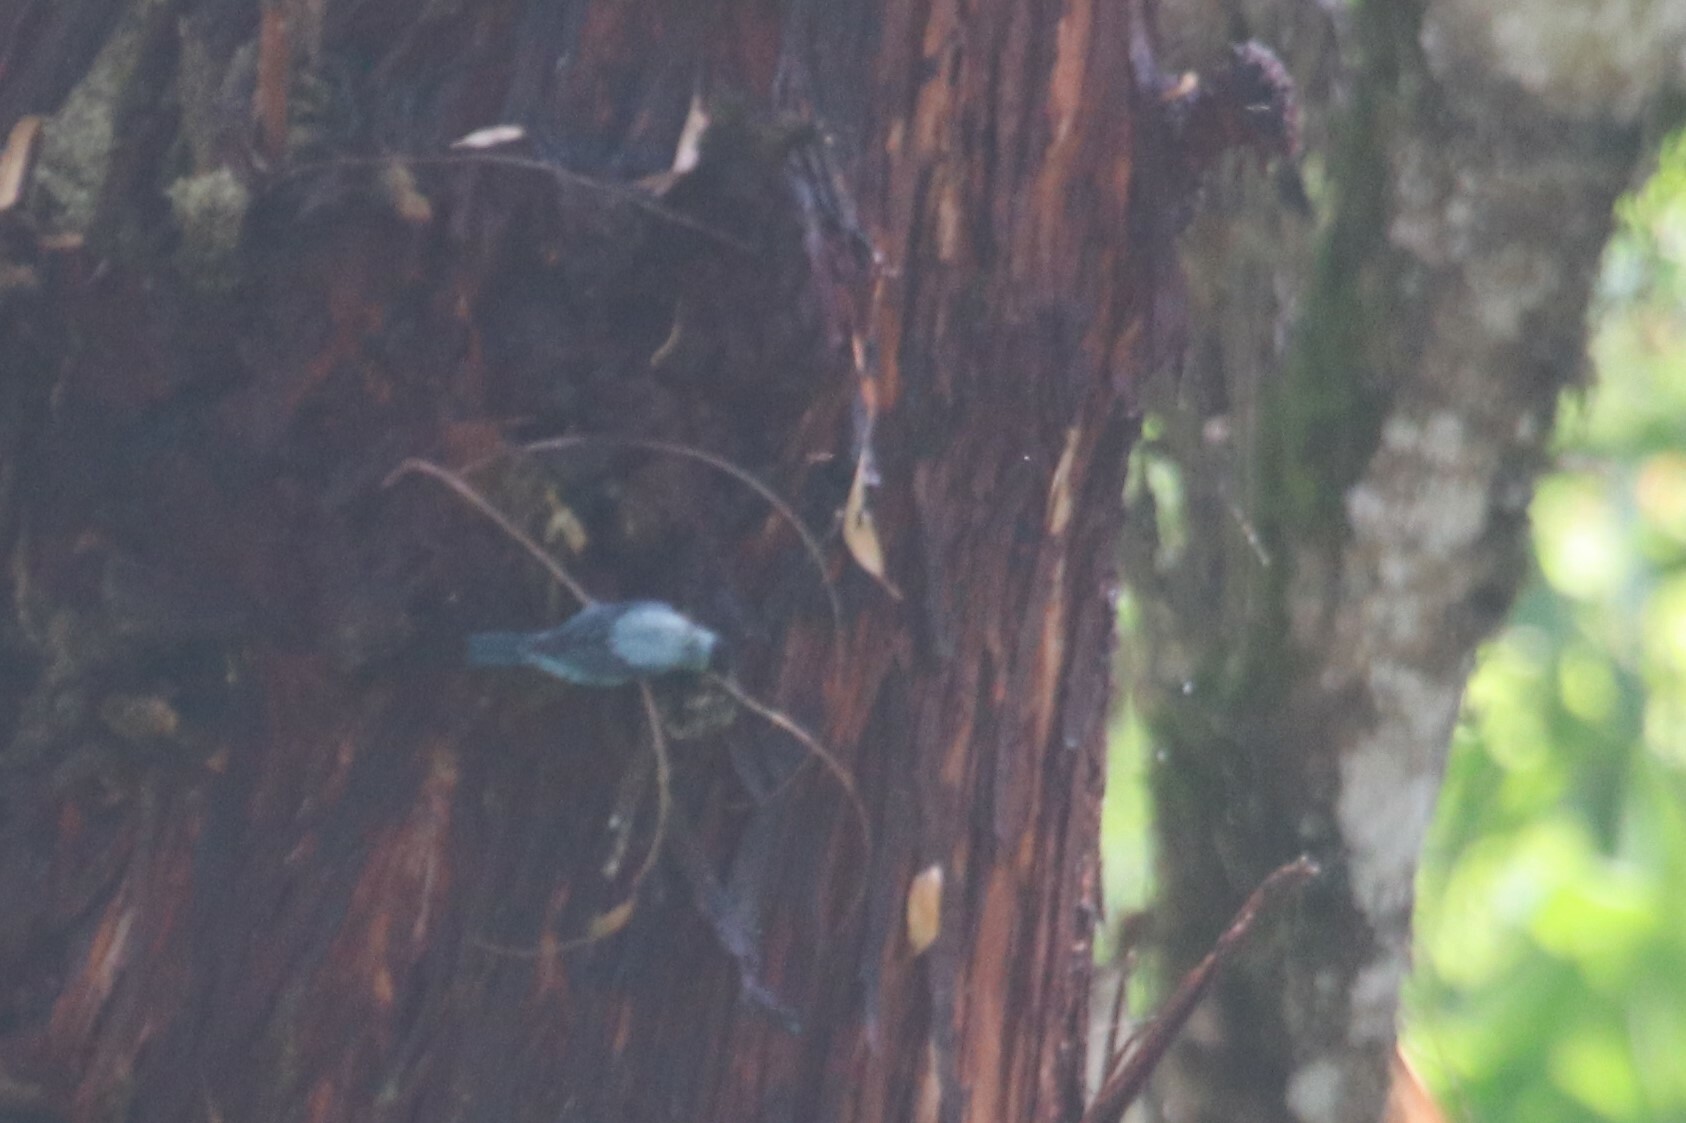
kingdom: Animalia
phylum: Chordata
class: Aves
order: Passeriformes
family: Thraupidae
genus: Stilpnia
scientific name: Stilpnia heinei
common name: Black-capped tanager
